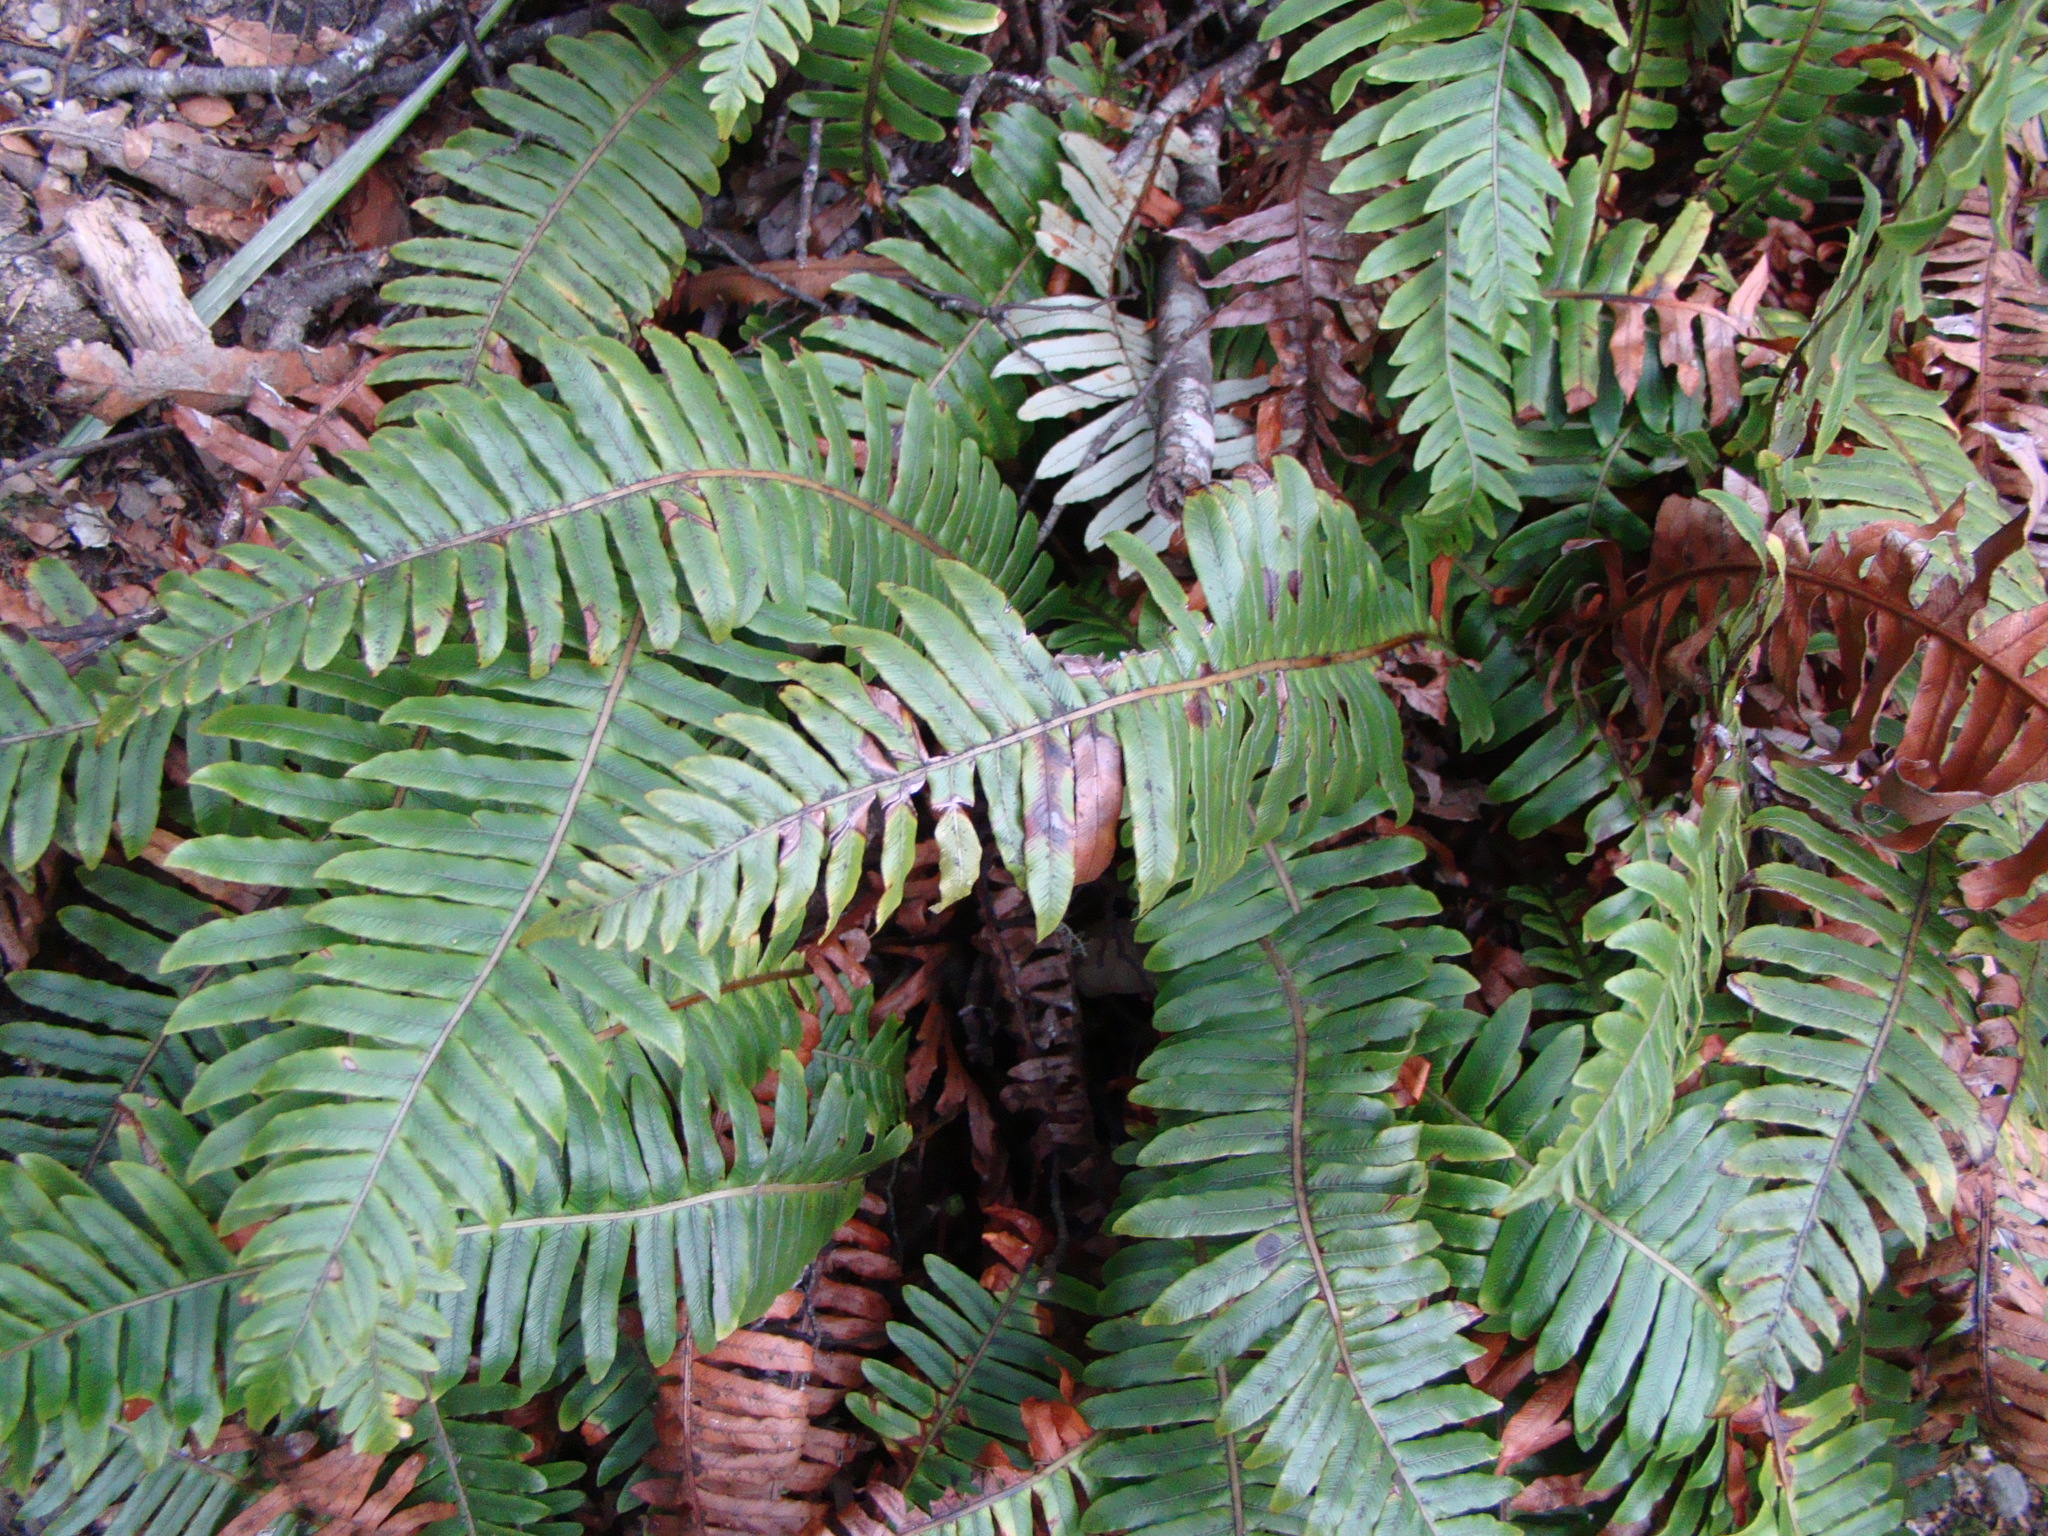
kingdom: Plantae
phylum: Tracheophyta
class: Polypodiopsida
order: Polypodiales
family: Blechnaceae
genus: Lomaria
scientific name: Lomaria discolor
